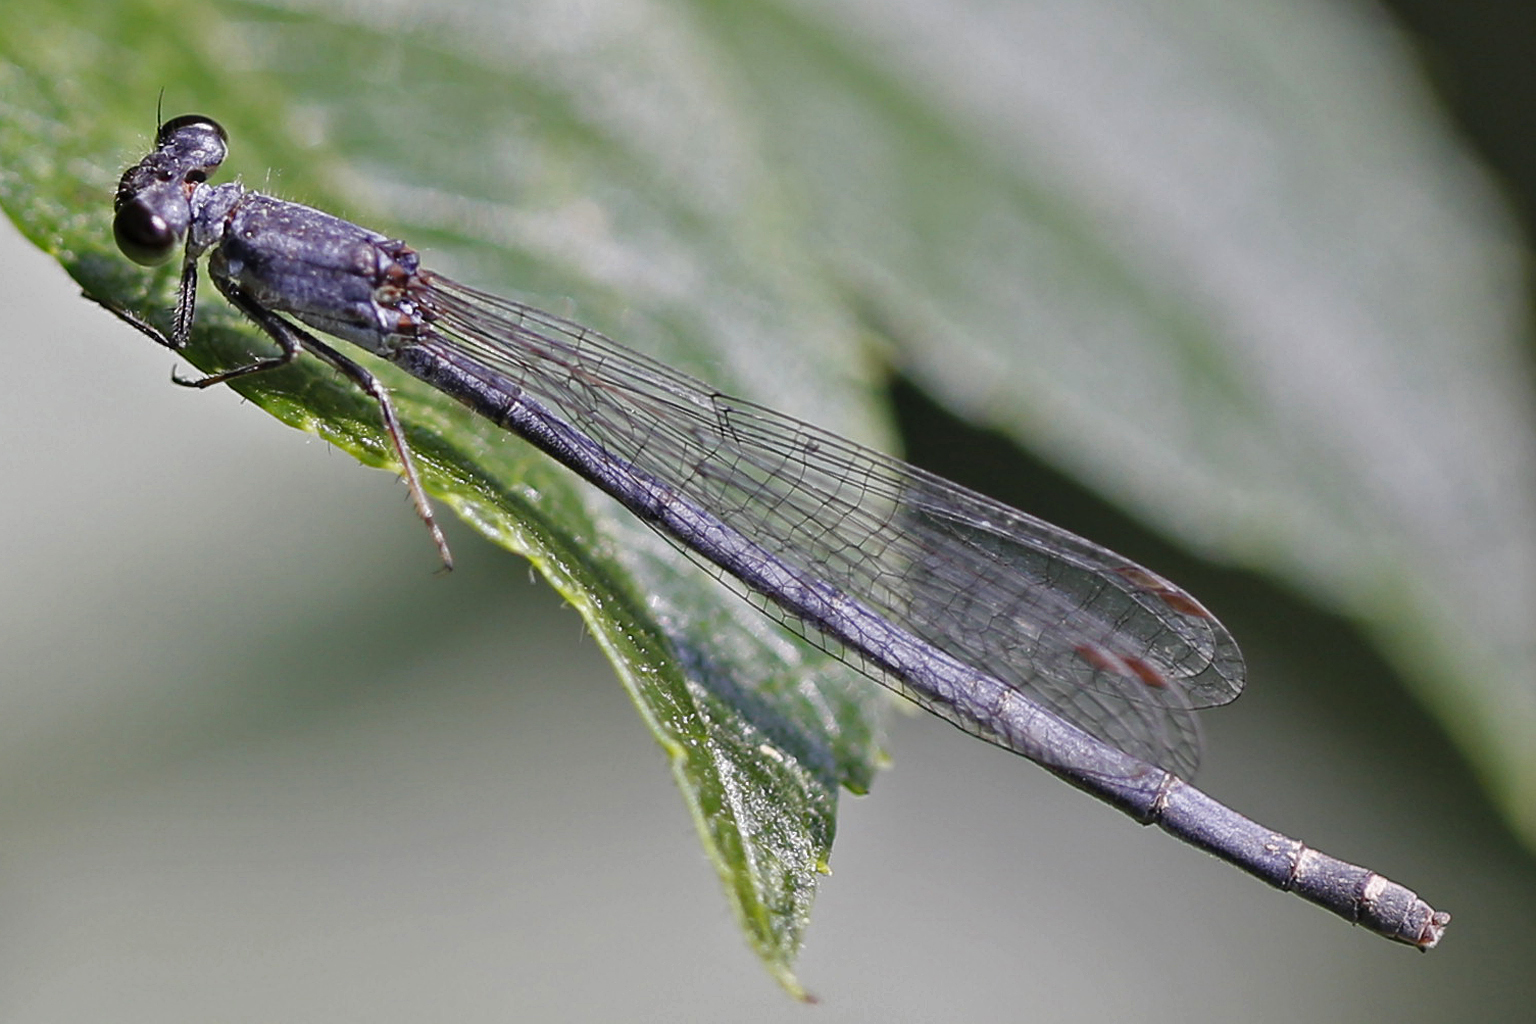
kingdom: Animalia
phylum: Arthropoda
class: Insecta
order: Odonata
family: Coenagrionidae
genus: Ischnura
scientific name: Ischnura posita
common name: Fragile forktail
